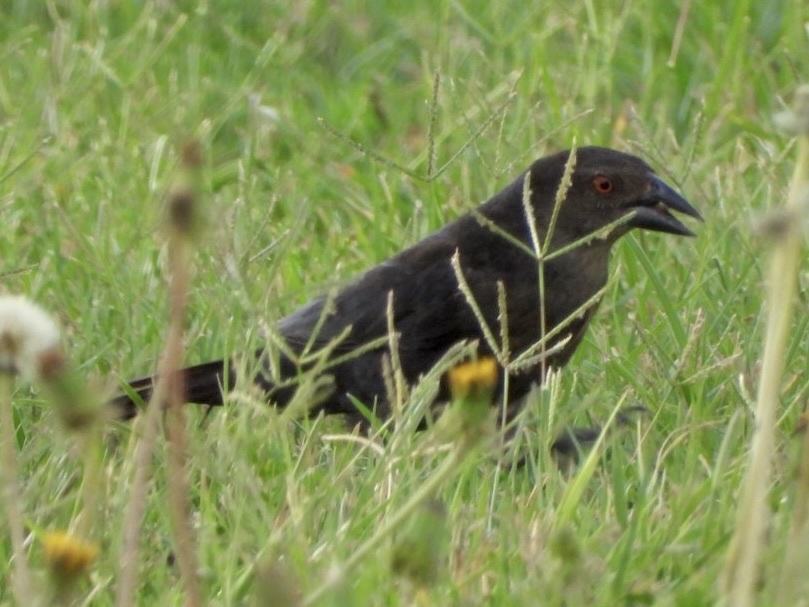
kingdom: Animalia
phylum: Chordata
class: Aves
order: Passeriformes
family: Icteridae
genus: Molothrus
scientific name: Molothrus aeneus
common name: Bronzed cowbird
